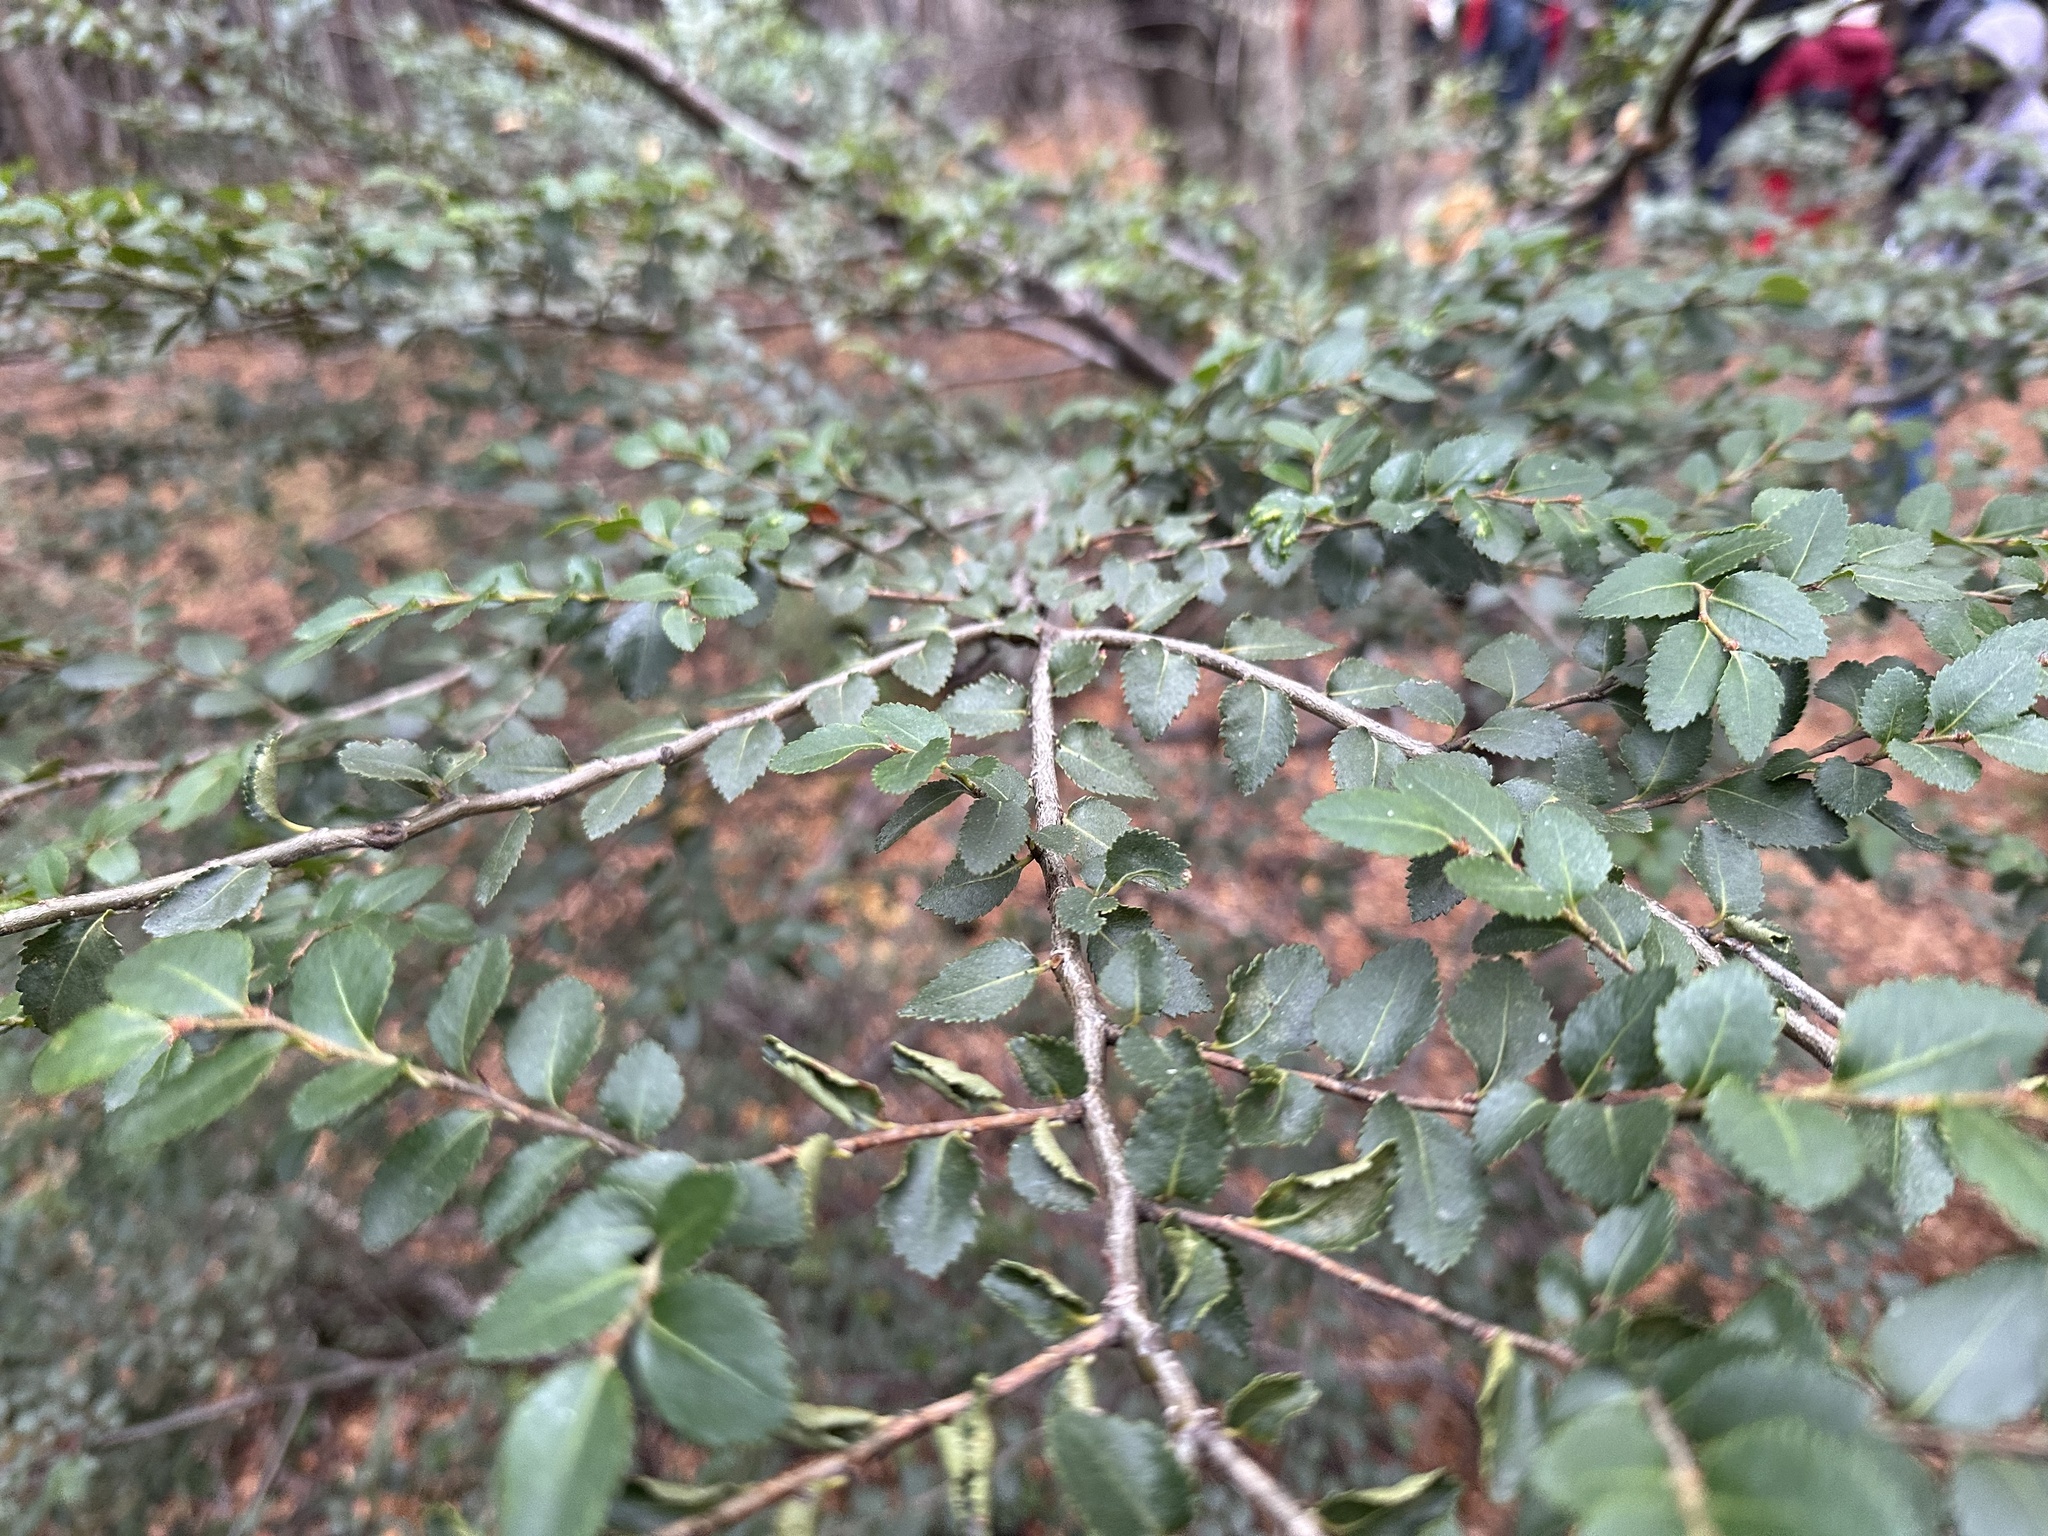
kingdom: Plantae
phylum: Tracheophyta
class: Magnoliopsida
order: Fagales
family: Nothofagaceae
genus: Nothofagus
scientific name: Nothofagus betuloides
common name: Magellan's beech
